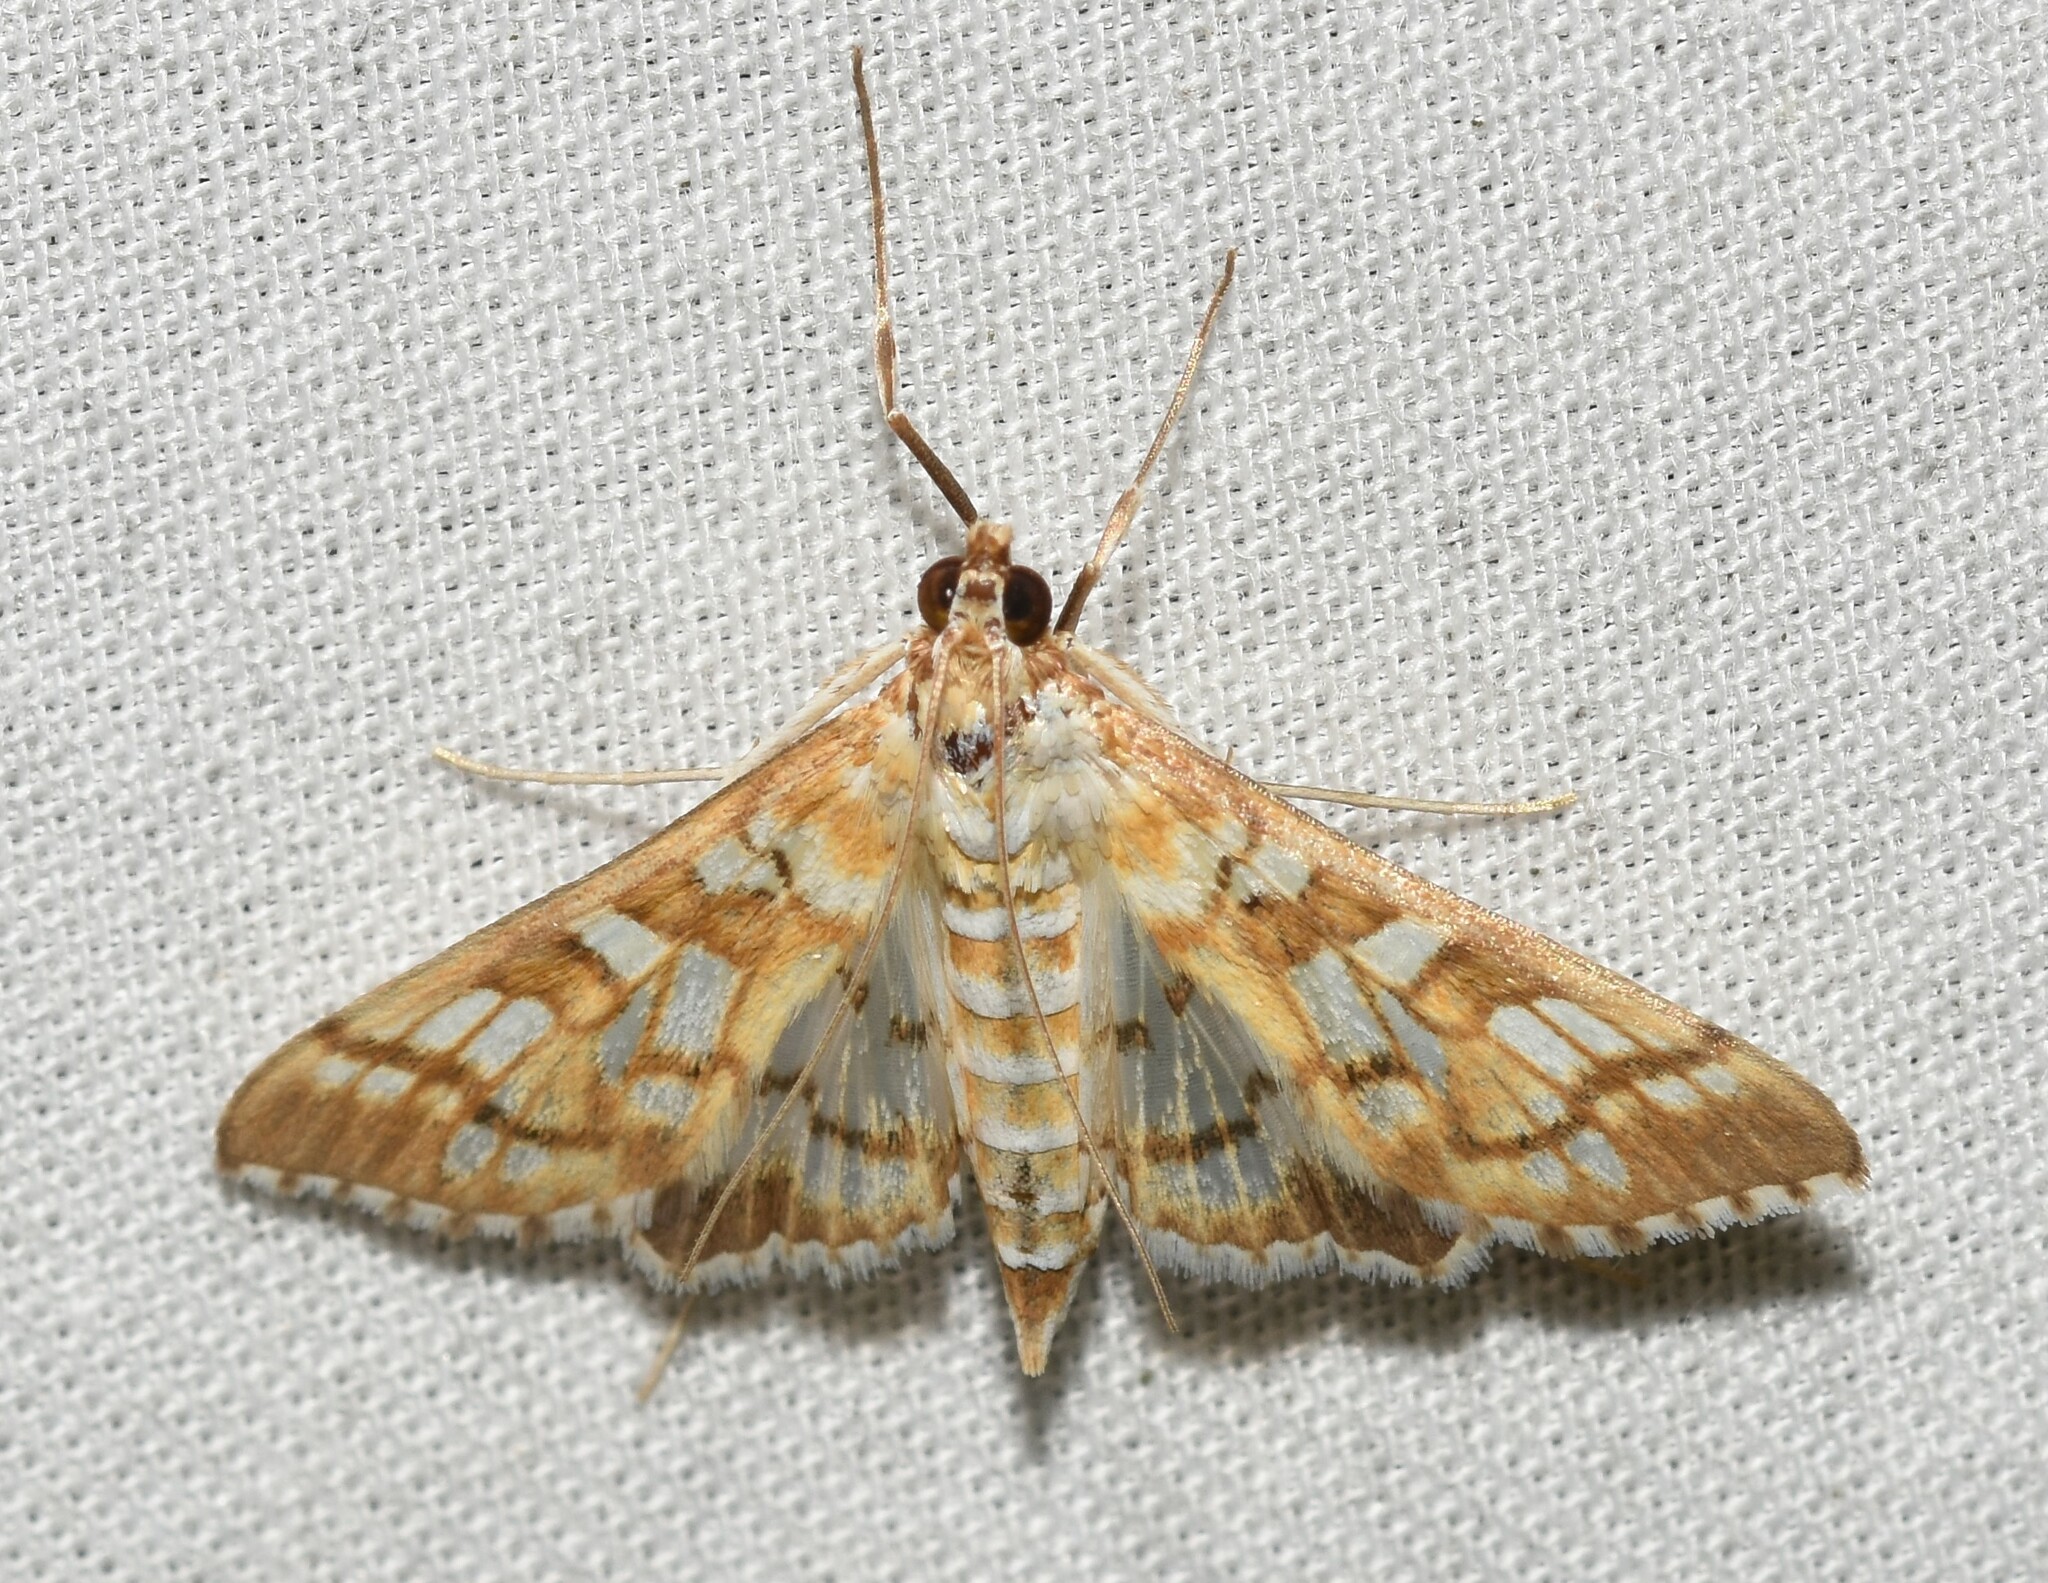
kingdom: Animalia
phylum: Arthropoda
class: Insecta
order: Lepidoptera
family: Crambidae
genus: Epipagis
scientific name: Epipagis fenestralis
